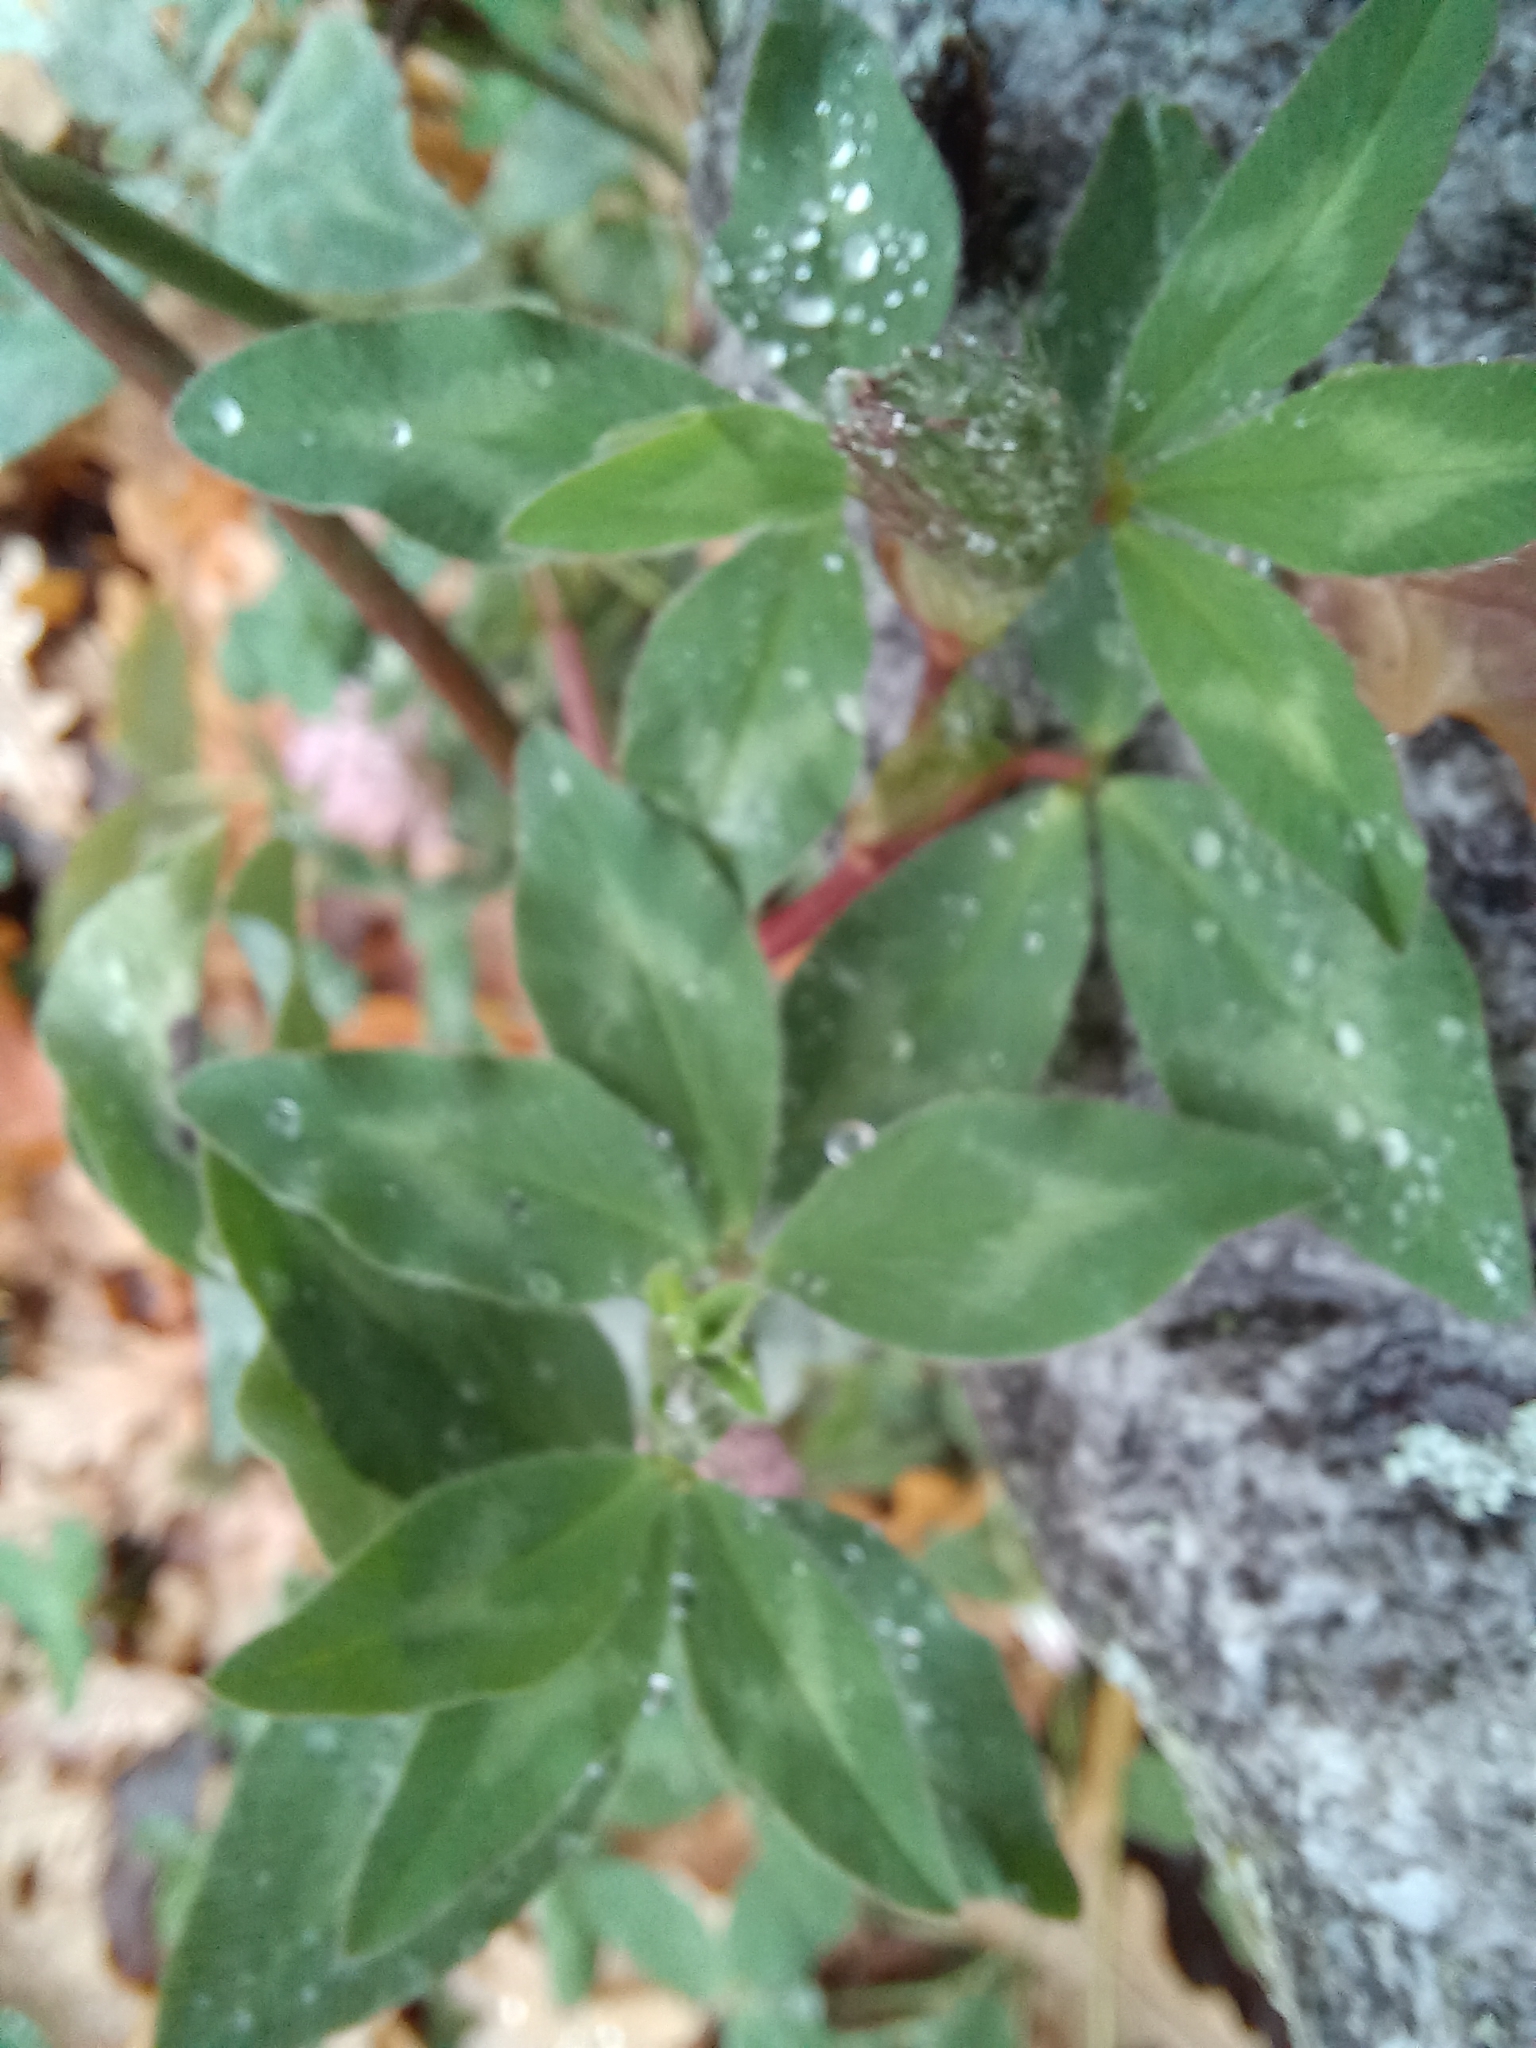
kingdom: Plantae
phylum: Tracheophyta
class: Magnoliopsida
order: Fabales
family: Fabaceae
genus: Trifolium
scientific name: Trifolium pratense
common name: Red clover
